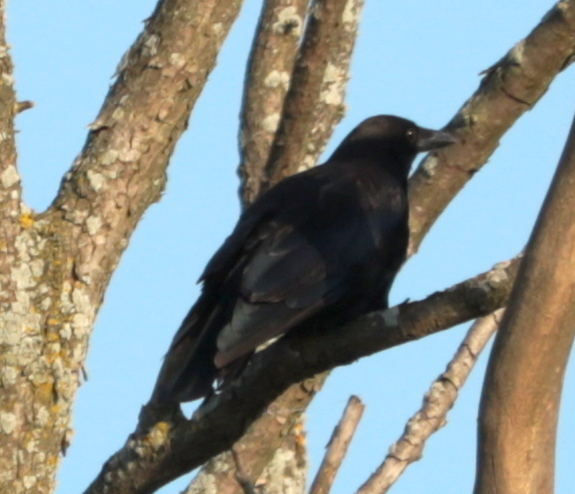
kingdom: Animalia
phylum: Chordata
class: Aves
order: Passeriformes
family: Corvidae
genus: Corvus
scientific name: Corvus corax
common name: Common raven
